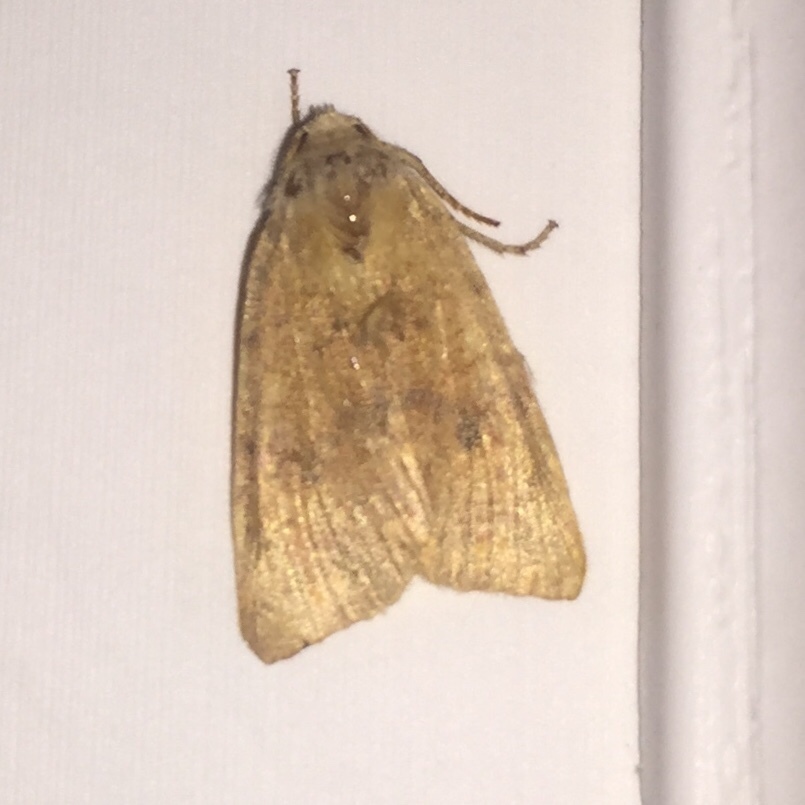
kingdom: Animalia
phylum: Arthropoda
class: Insecta
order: Lepidoptera
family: Noctuidae
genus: Agrochola
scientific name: Agrochola bicolorago
